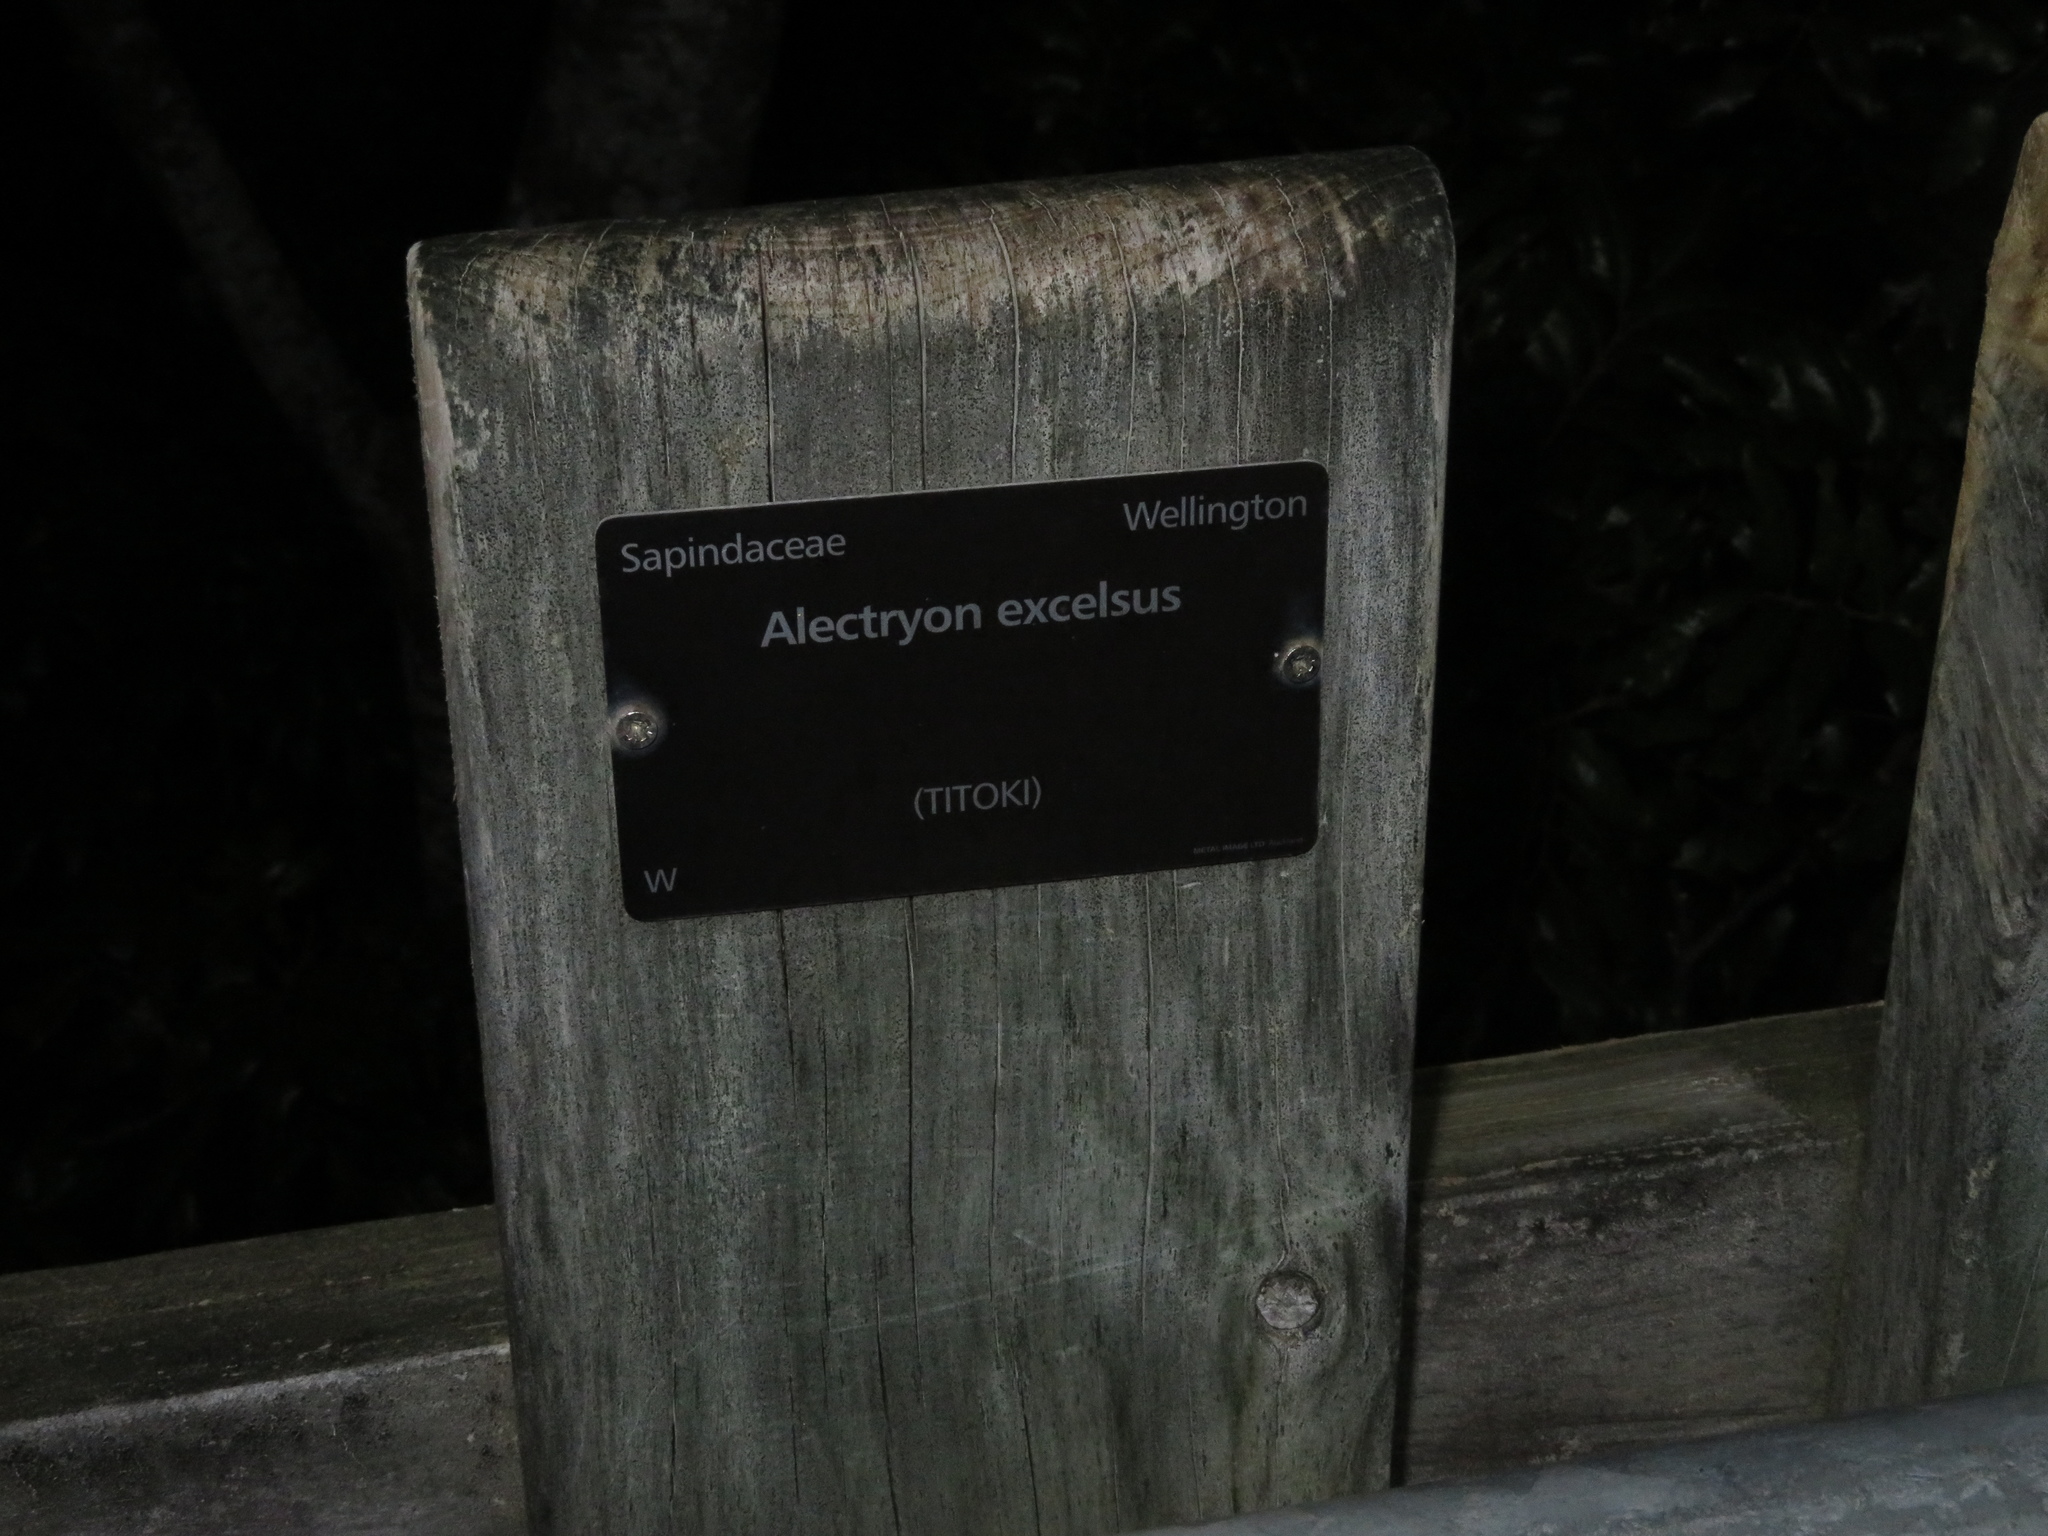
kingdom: Animalia
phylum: Arthropoda
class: Insecta
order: Orthoptera
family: Anostostomatidae
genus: Hemideina
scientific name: Hemideina crassidens
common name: Wellington tree weta
